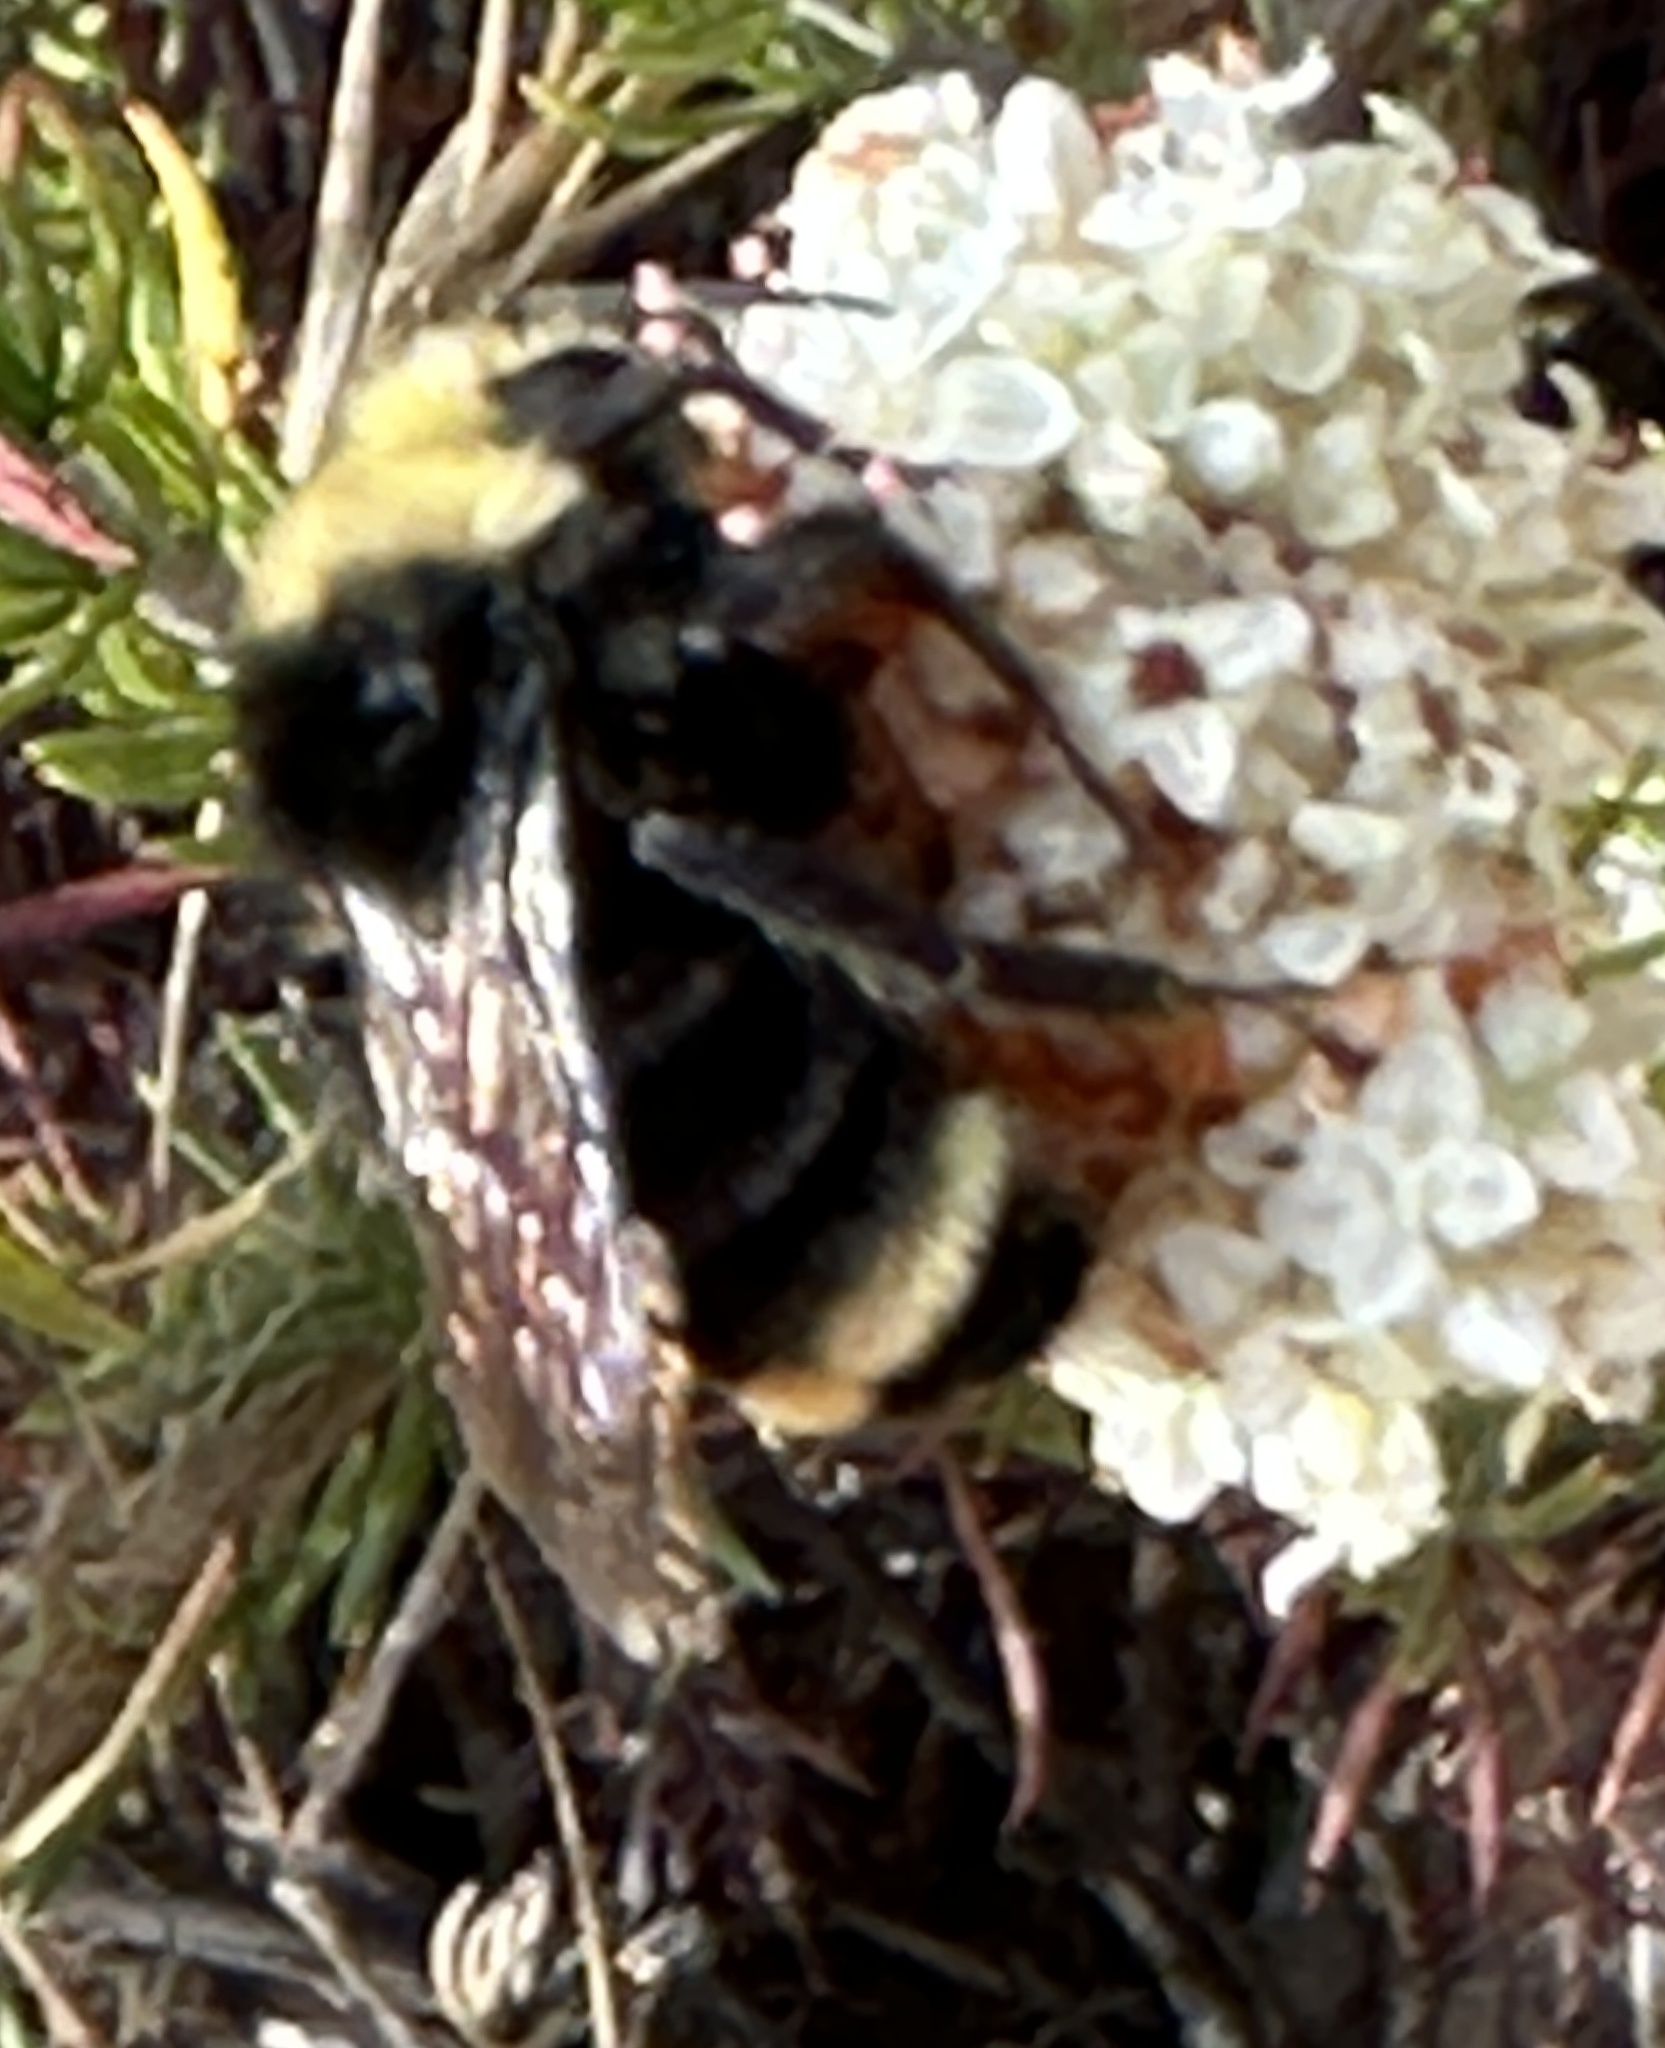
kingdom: Animalia
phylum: Arthropoda
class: Insecta
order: Hymenoptera
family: Apidae
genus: Bombus
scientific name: Bombus vosnesenskii
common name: Vosnesensky bumble bee
